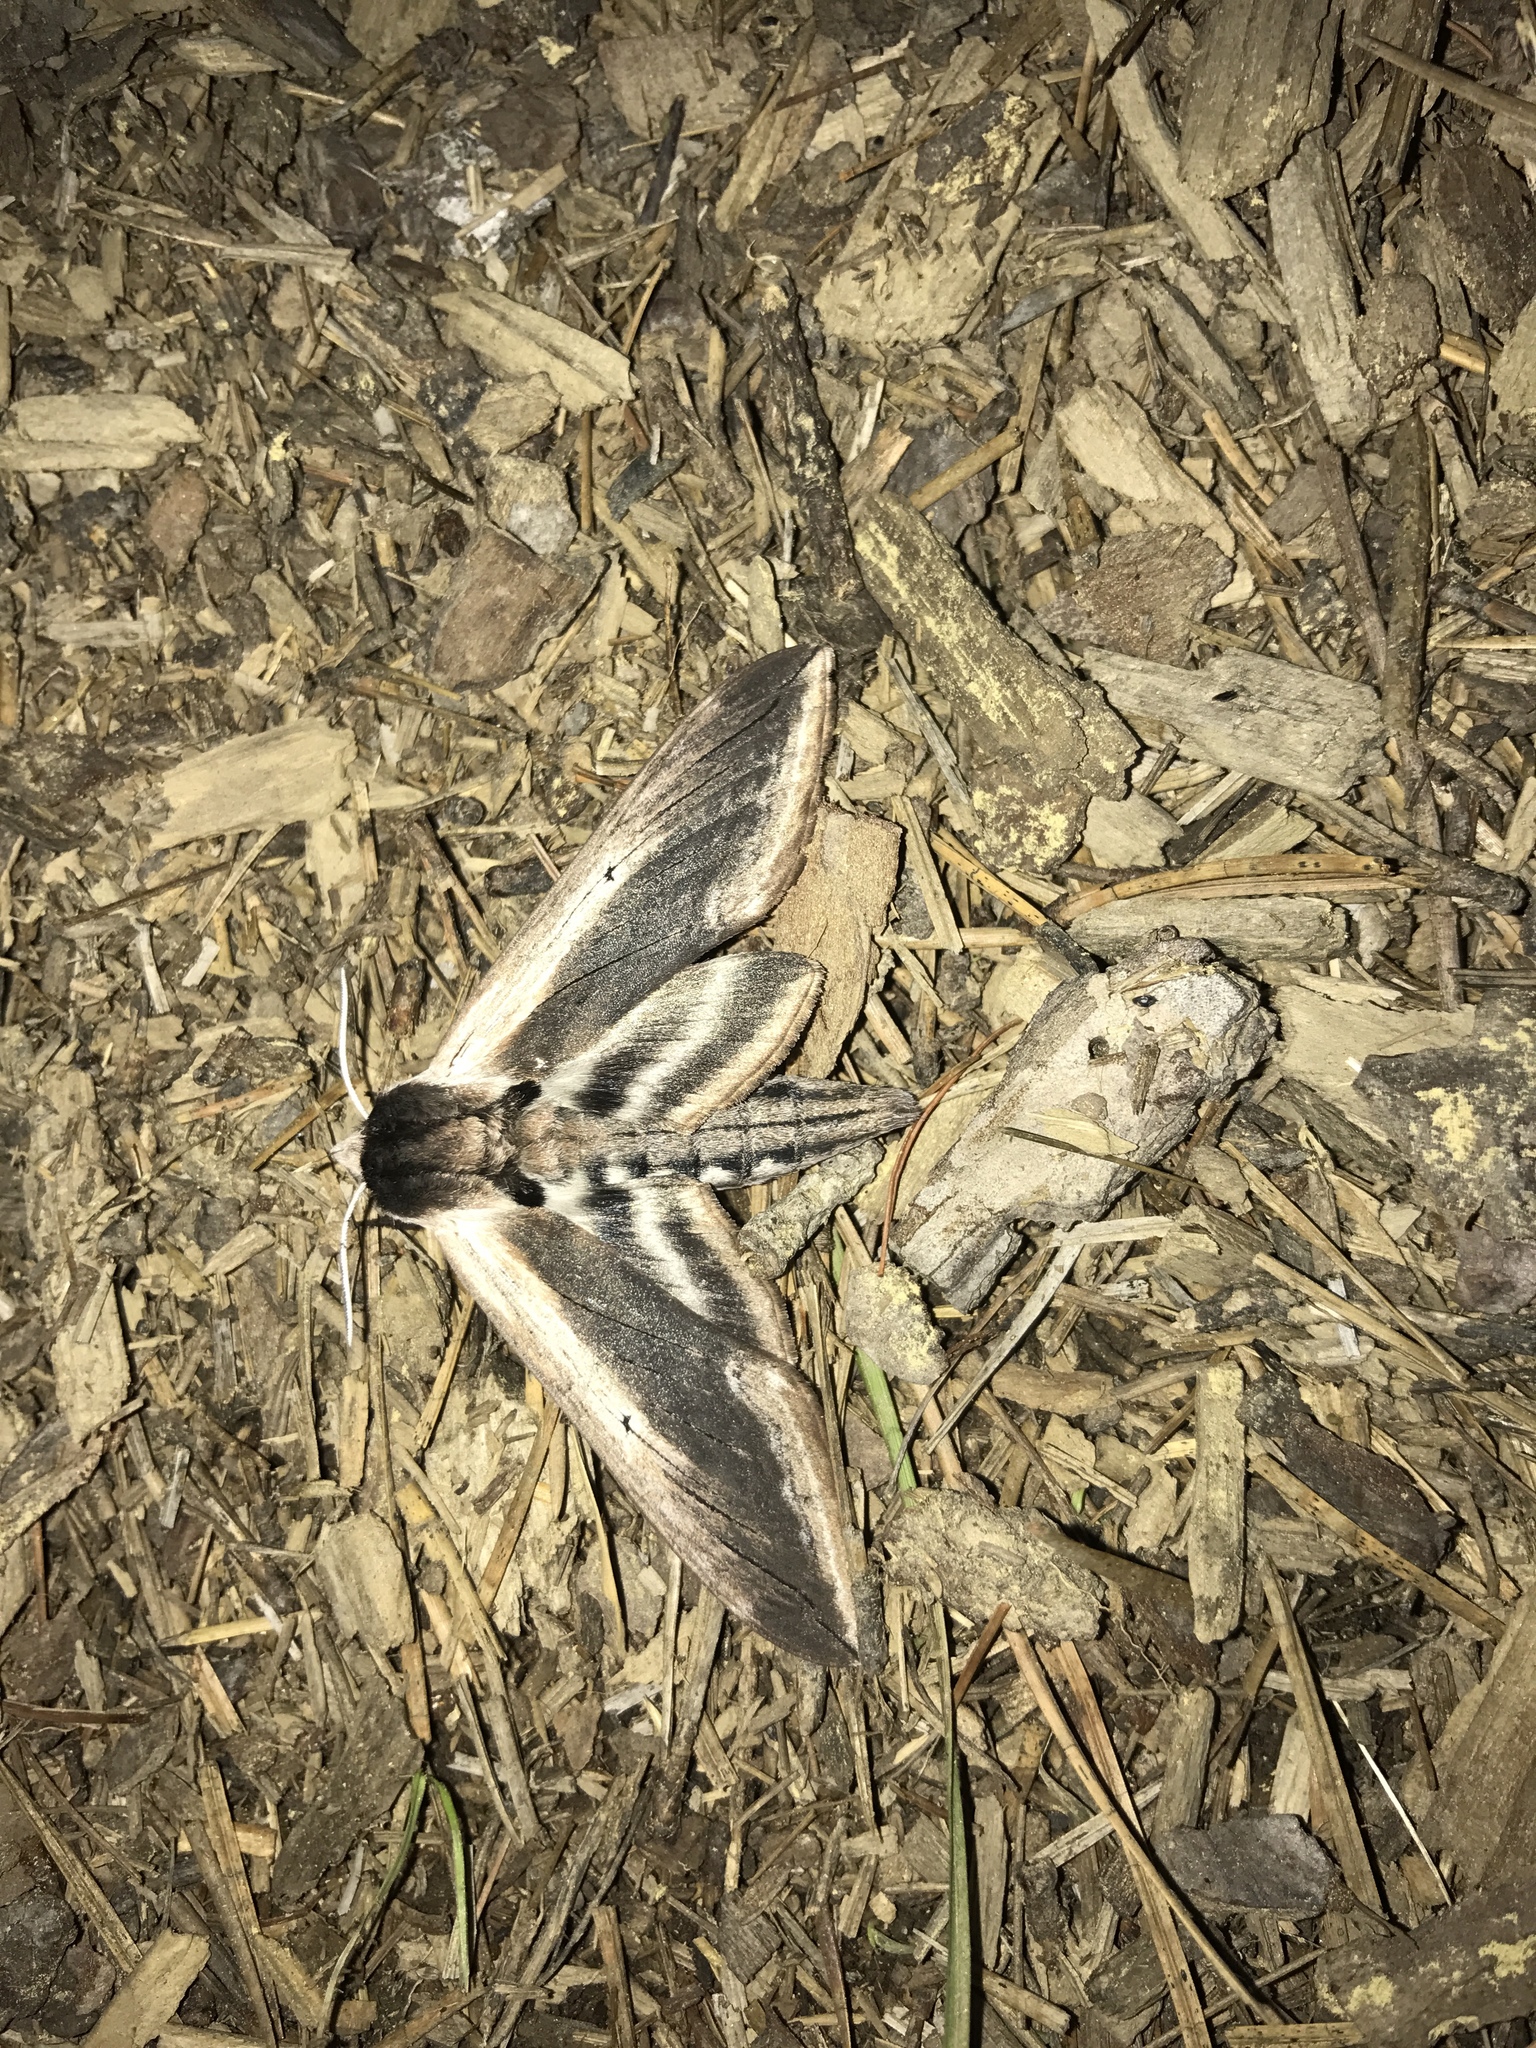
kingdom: Animalia
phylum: Arthropoda
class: Insecta
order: Lepidoptera
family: Sphingidae
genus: Sphinx
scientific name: Sphinx drupiferarum
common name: Wild cherry sphinx
